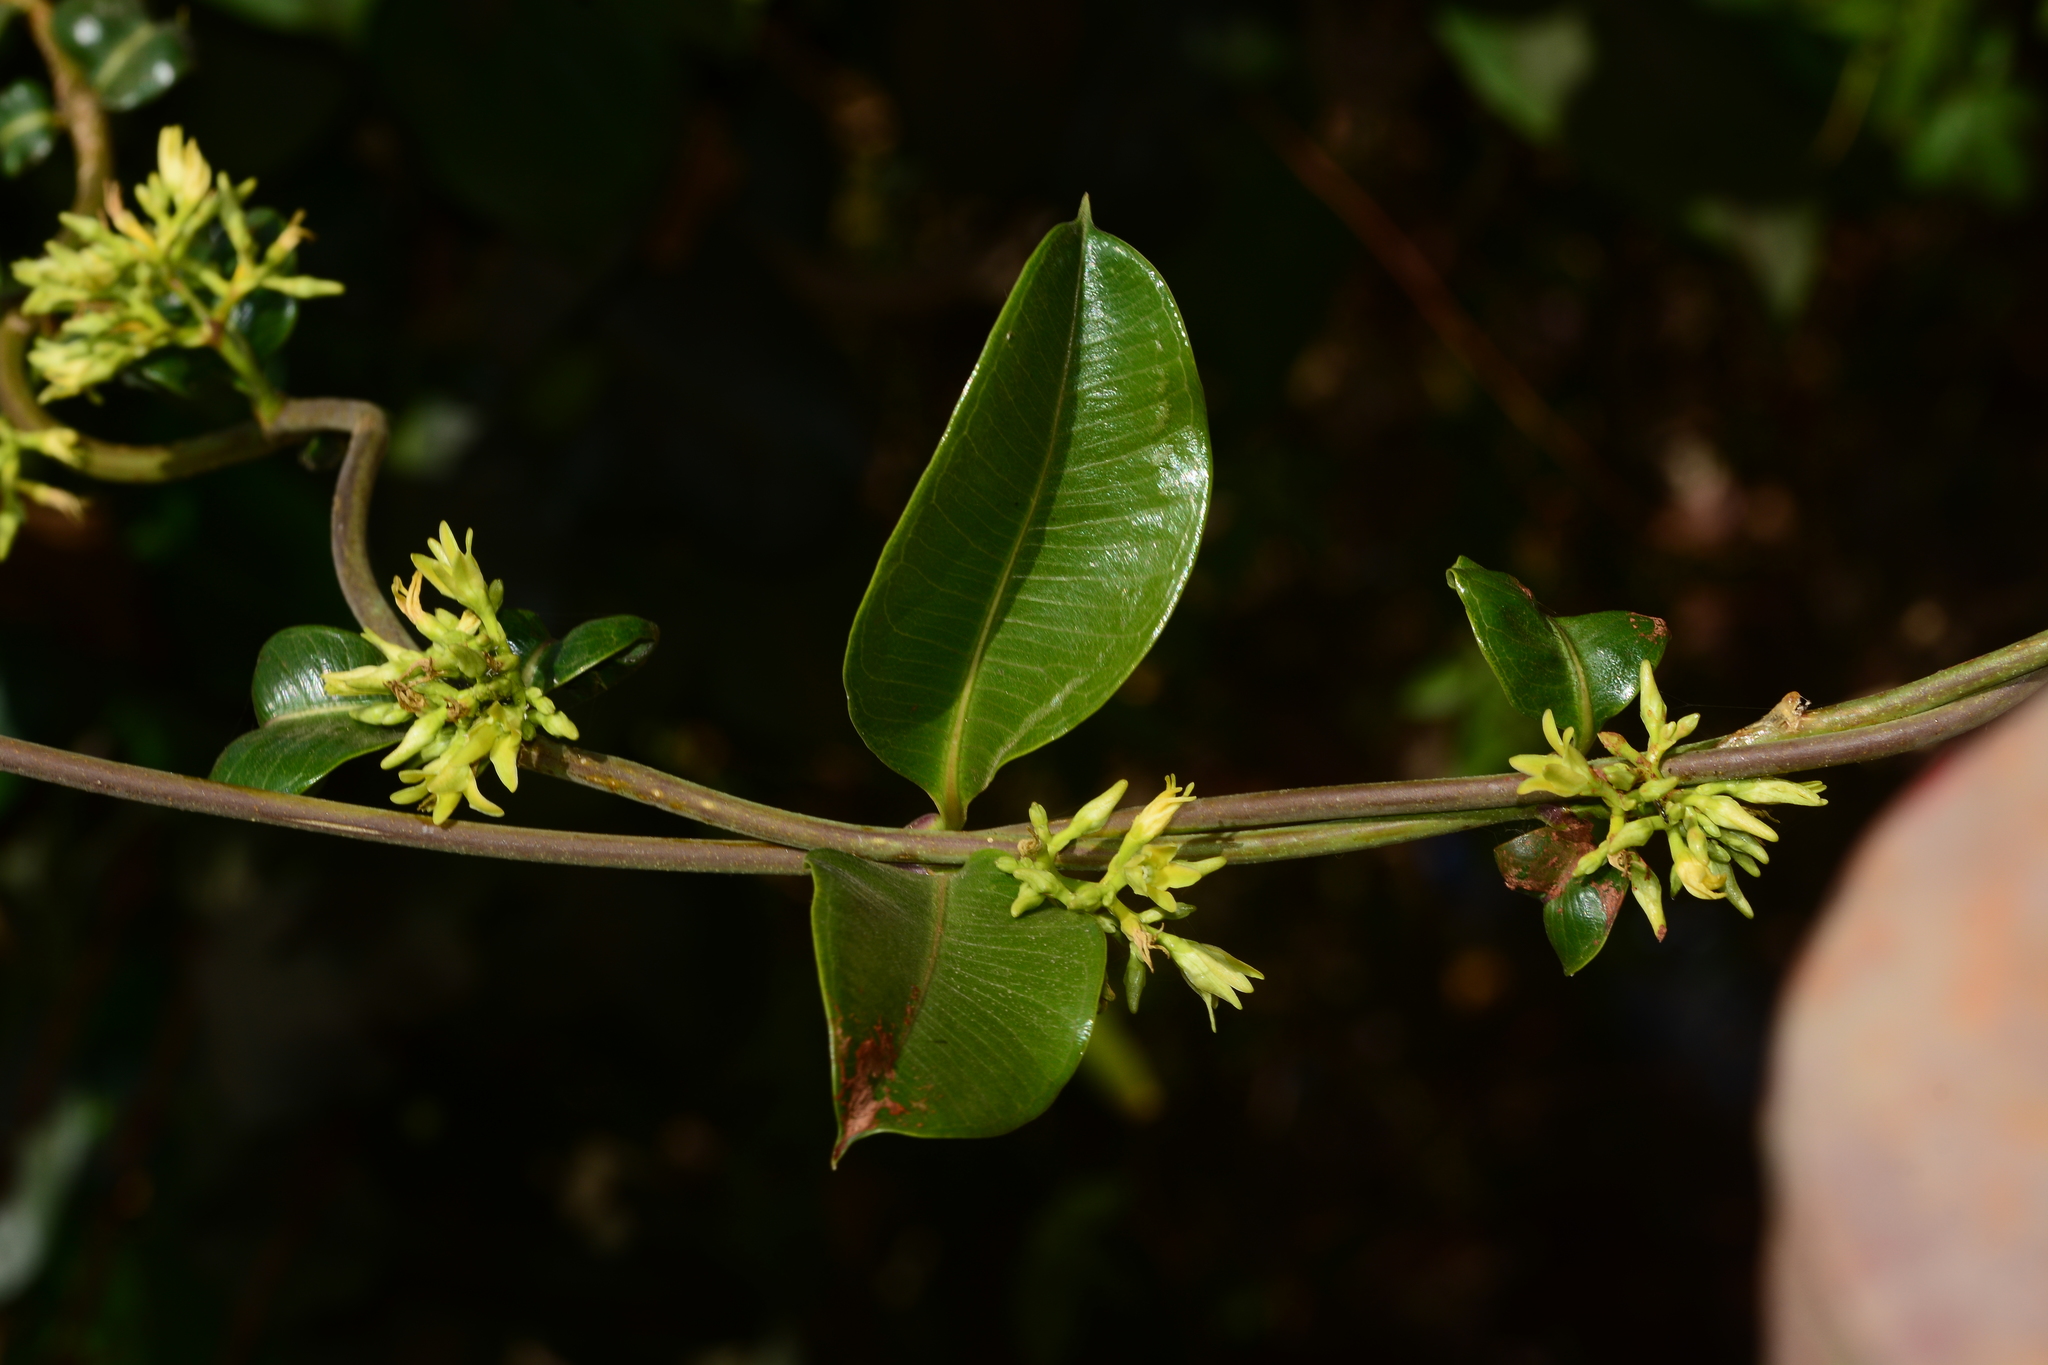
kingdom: Plantae
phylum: Tracheophyta
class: Magnoliopsida
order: Gentianales
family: Apocynaceae
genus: Cryptolepis
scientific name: Cryptolepis buchananii
